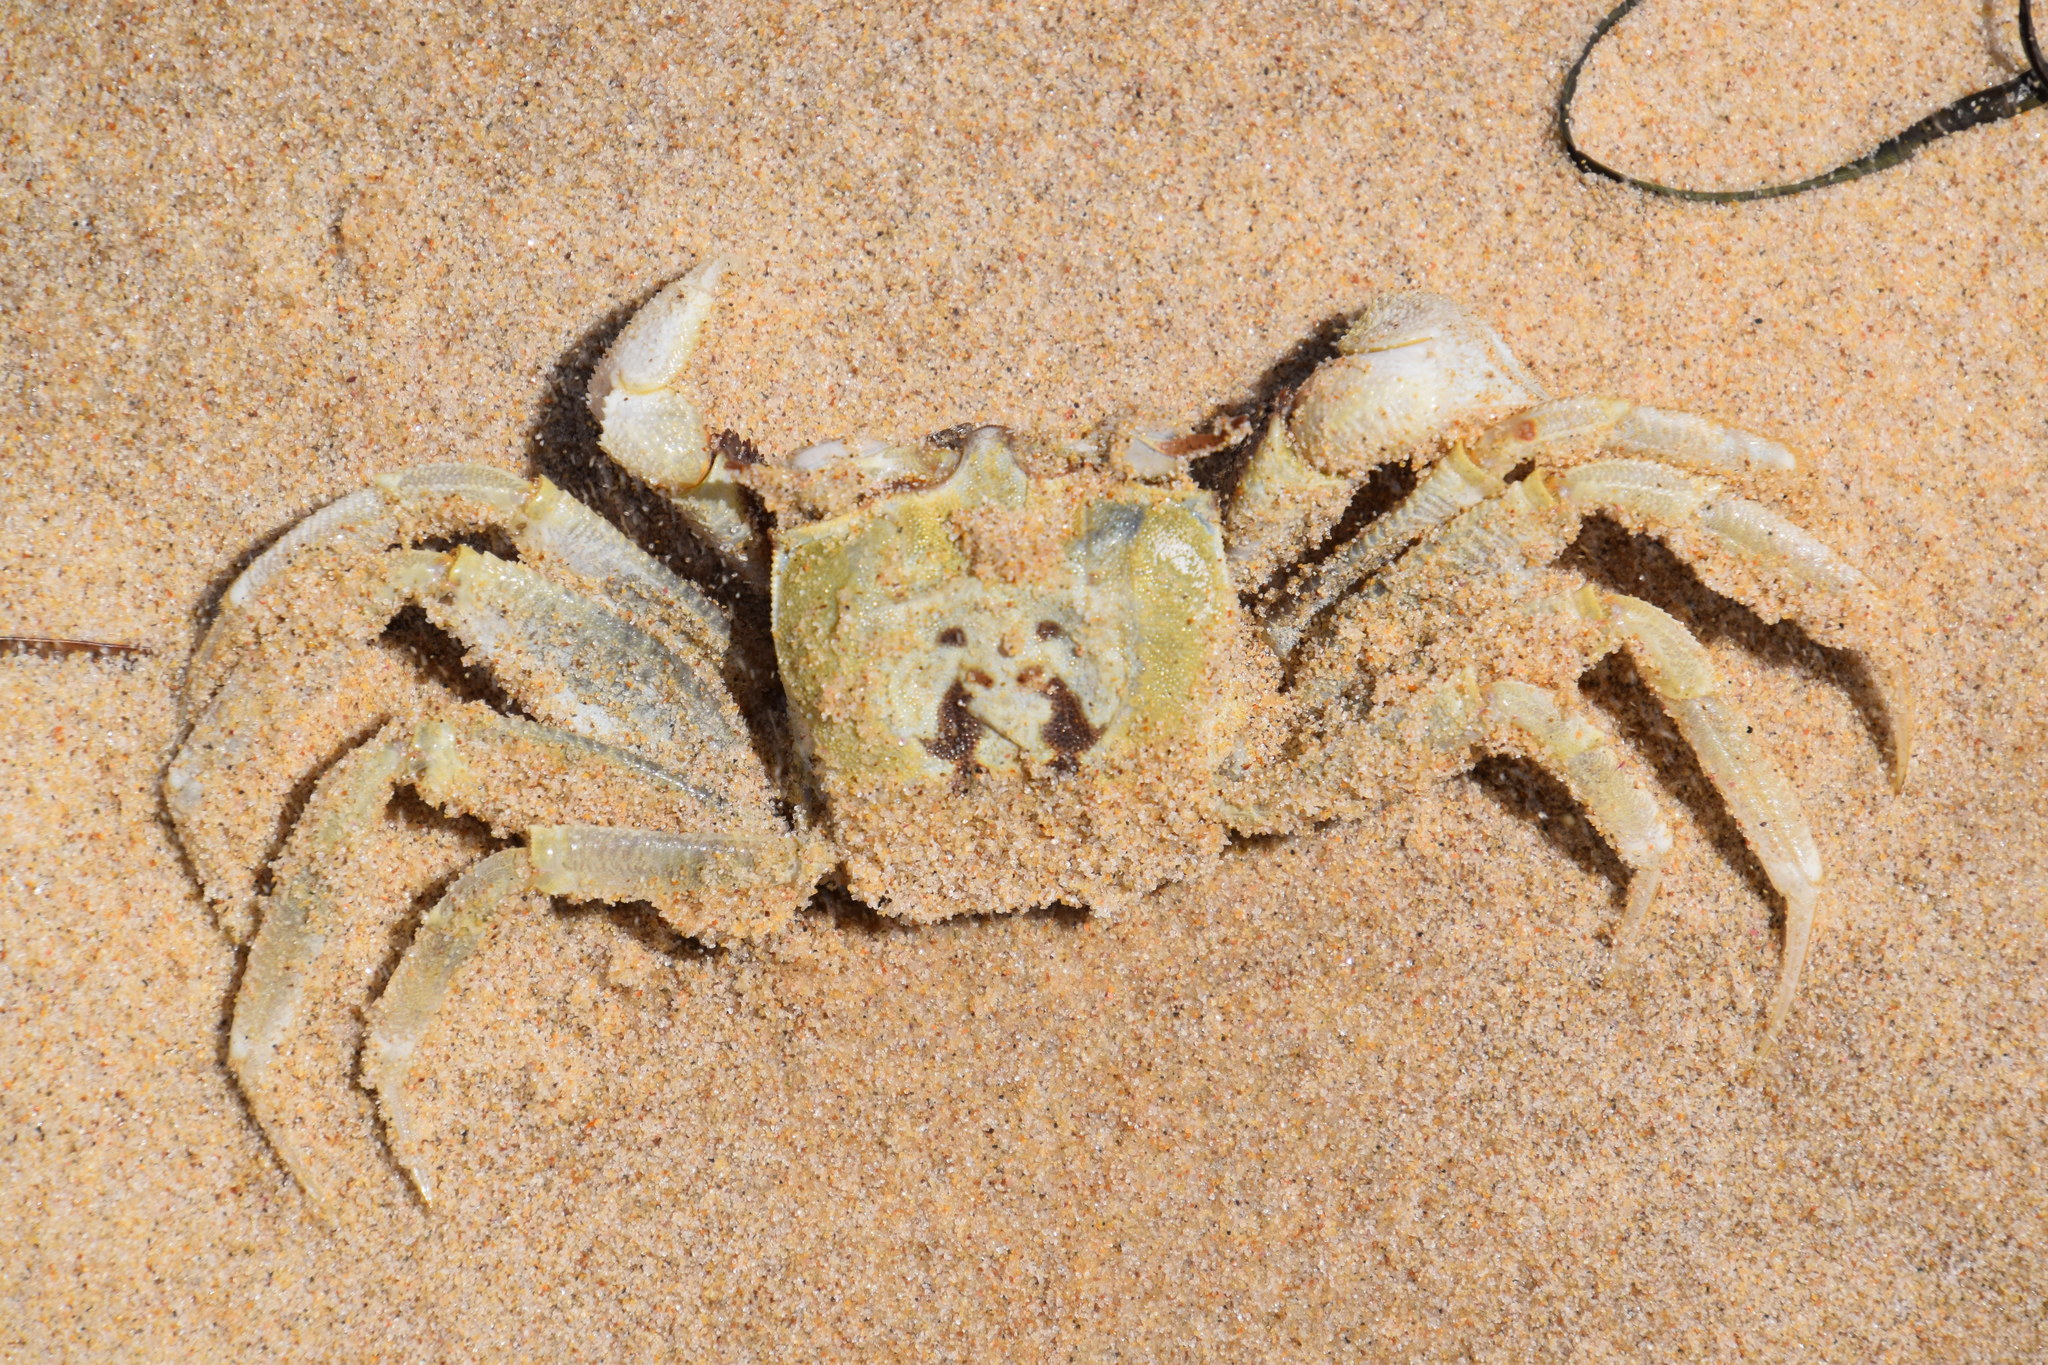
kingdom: Animalia
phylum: Arthropoda
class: Malacostraca
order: Decapoda
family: Ocypodidae
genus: Ocypode
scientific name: Ocypode ceratophthalmus
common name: Indo-pacific ghost crab
